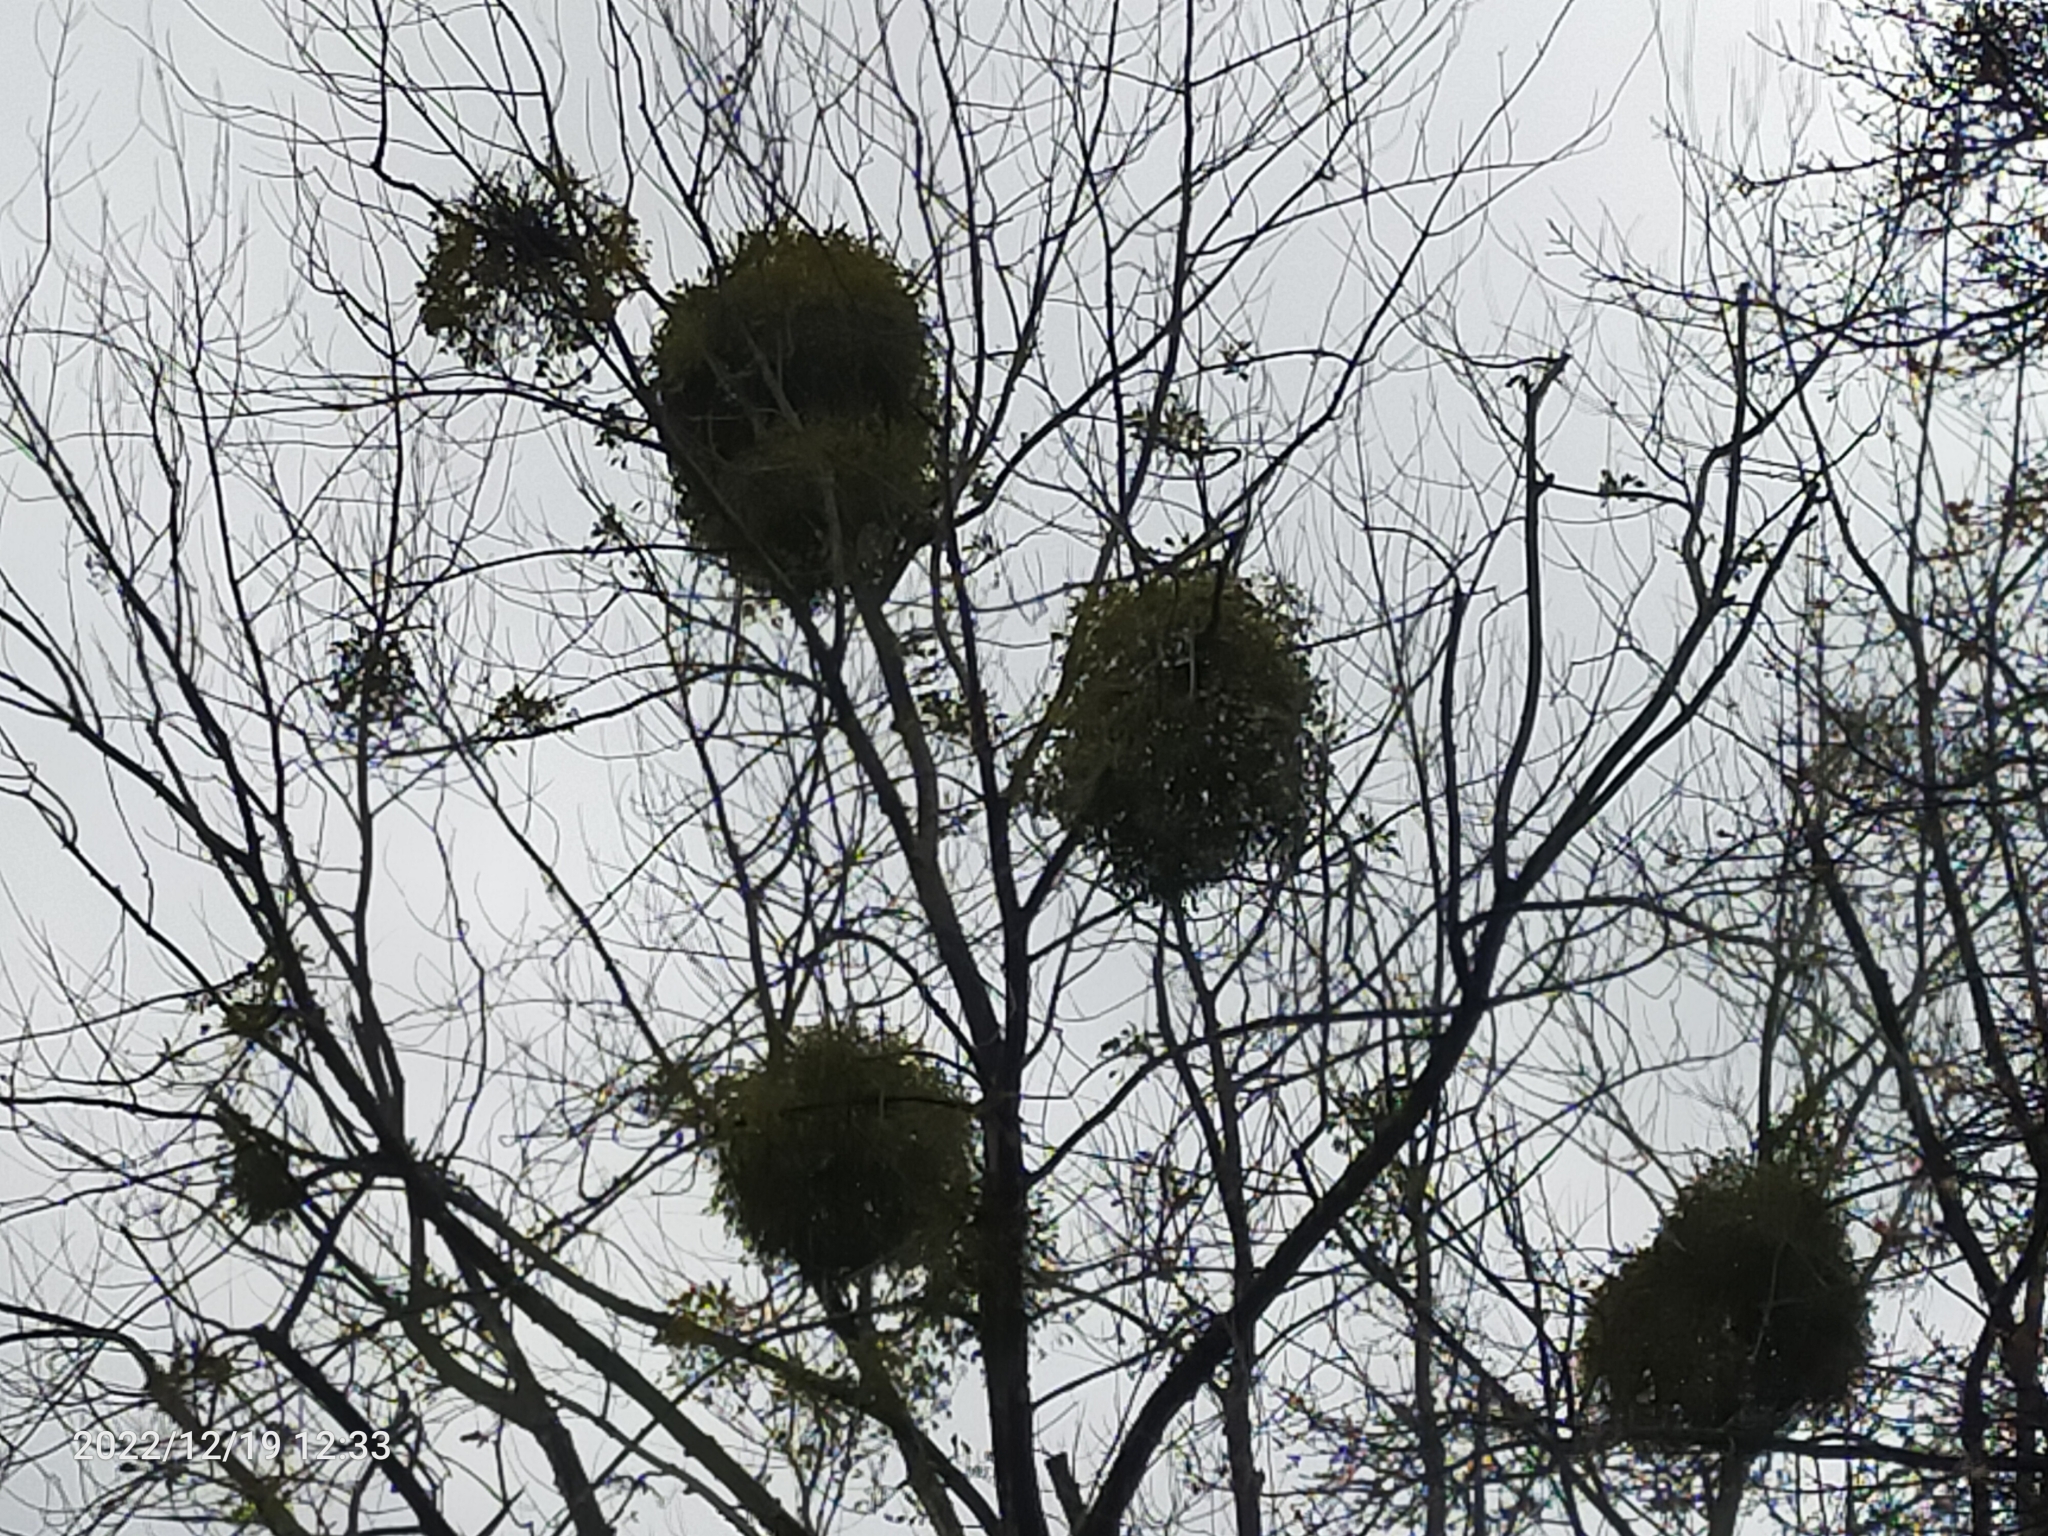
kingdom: Plantae
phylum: Tracheophyta
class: Magnoliopsida
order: Santalales
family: Viscaceae
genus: Viscum
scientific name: Viscum album
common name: Mistletoe
